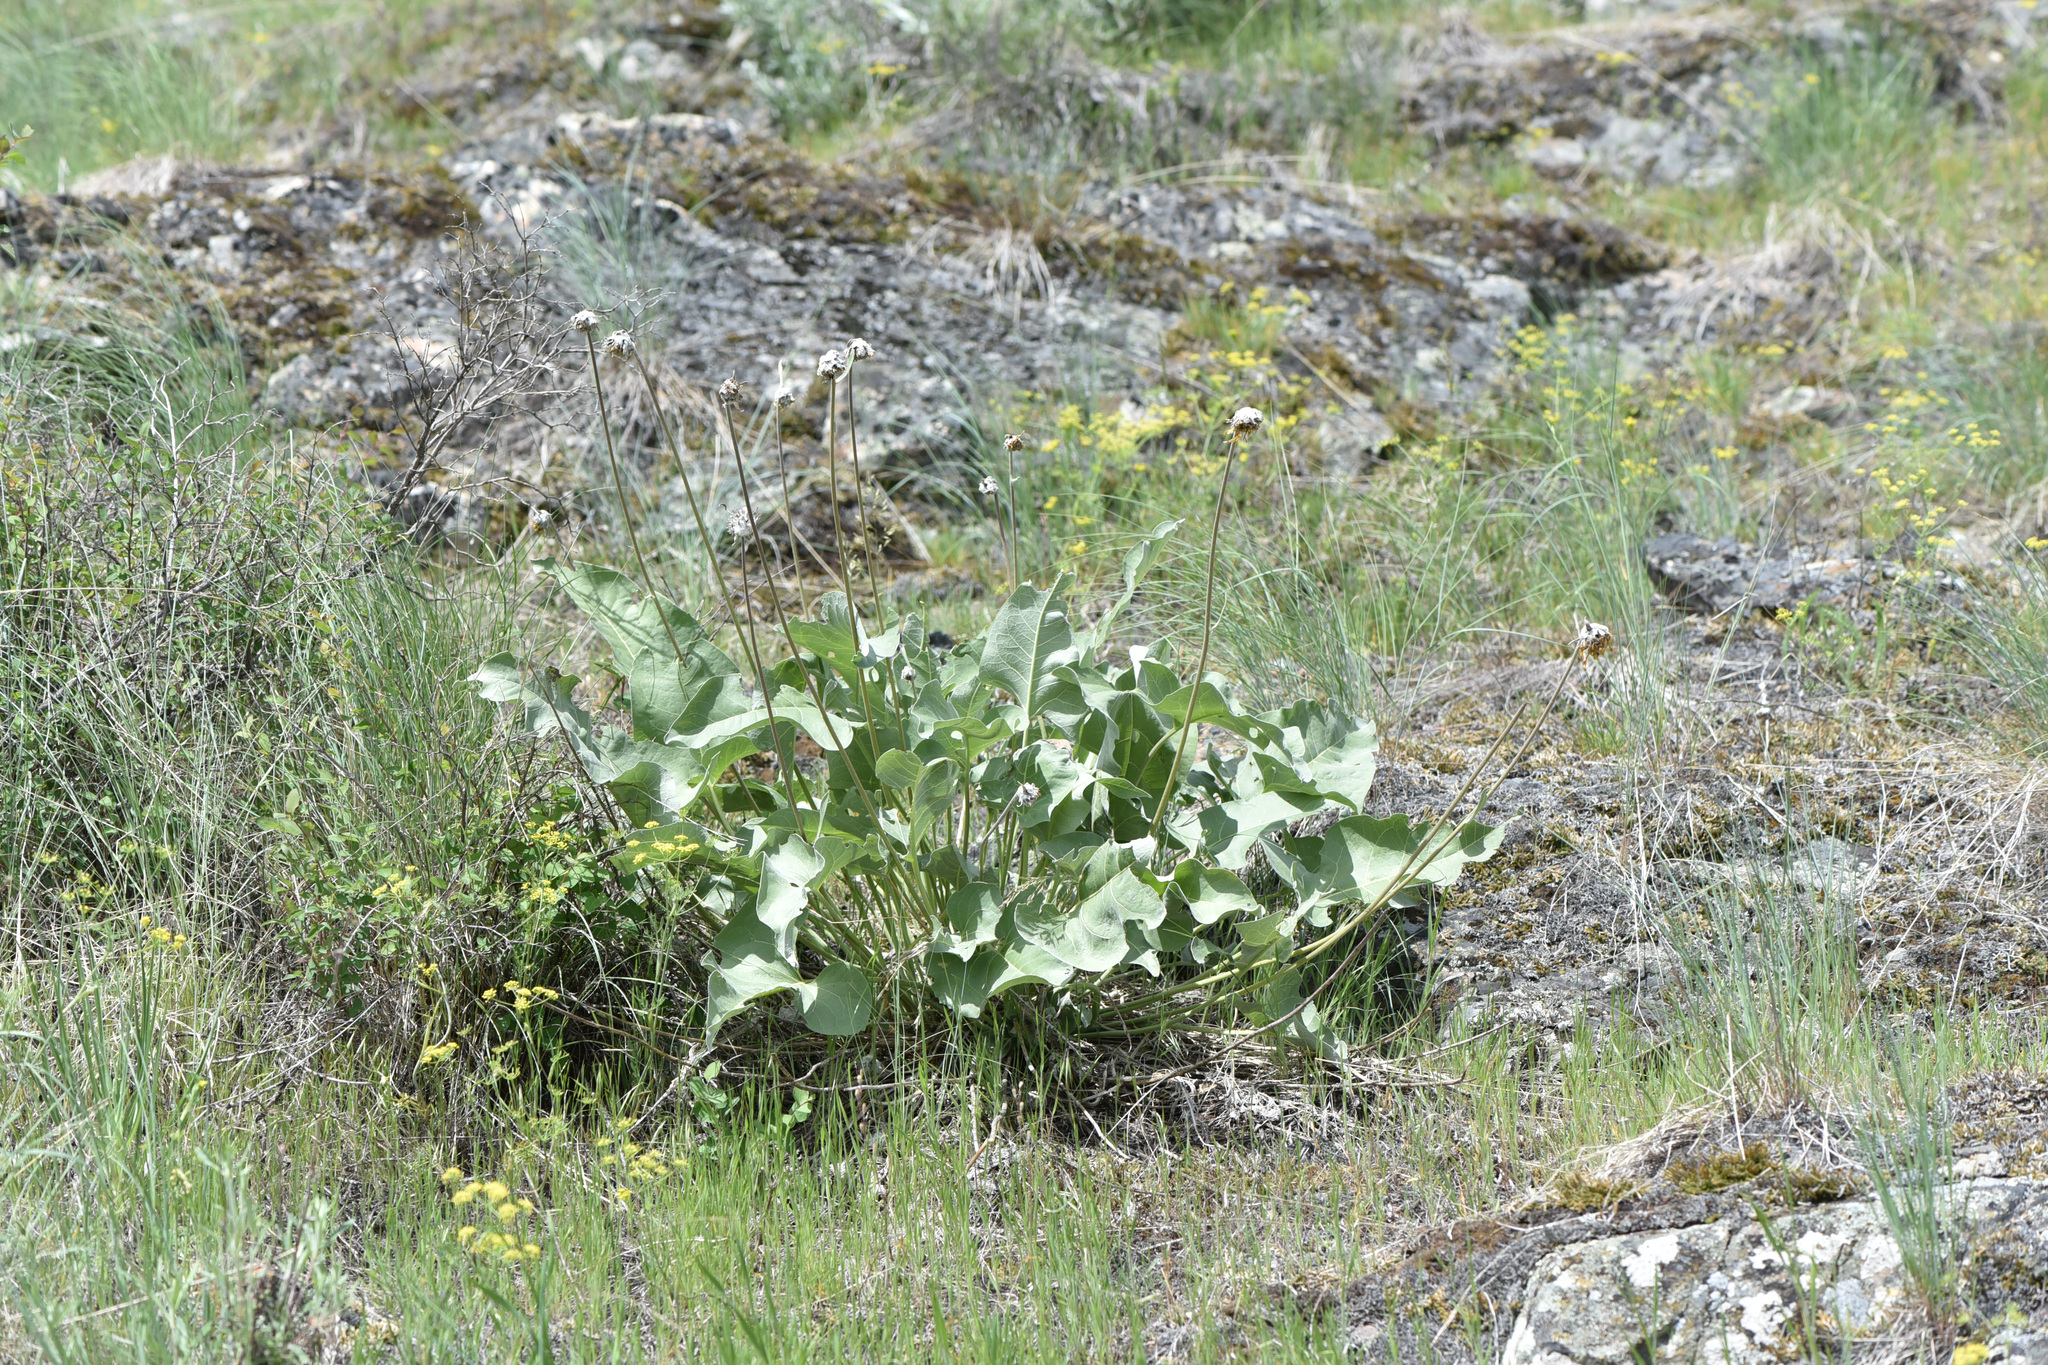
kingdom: Plantae
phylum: Tracheophyta
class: Magnoliopsida
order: Asterales
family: Asteraceae
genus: Wyethia
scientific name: Wyethia sagittata
